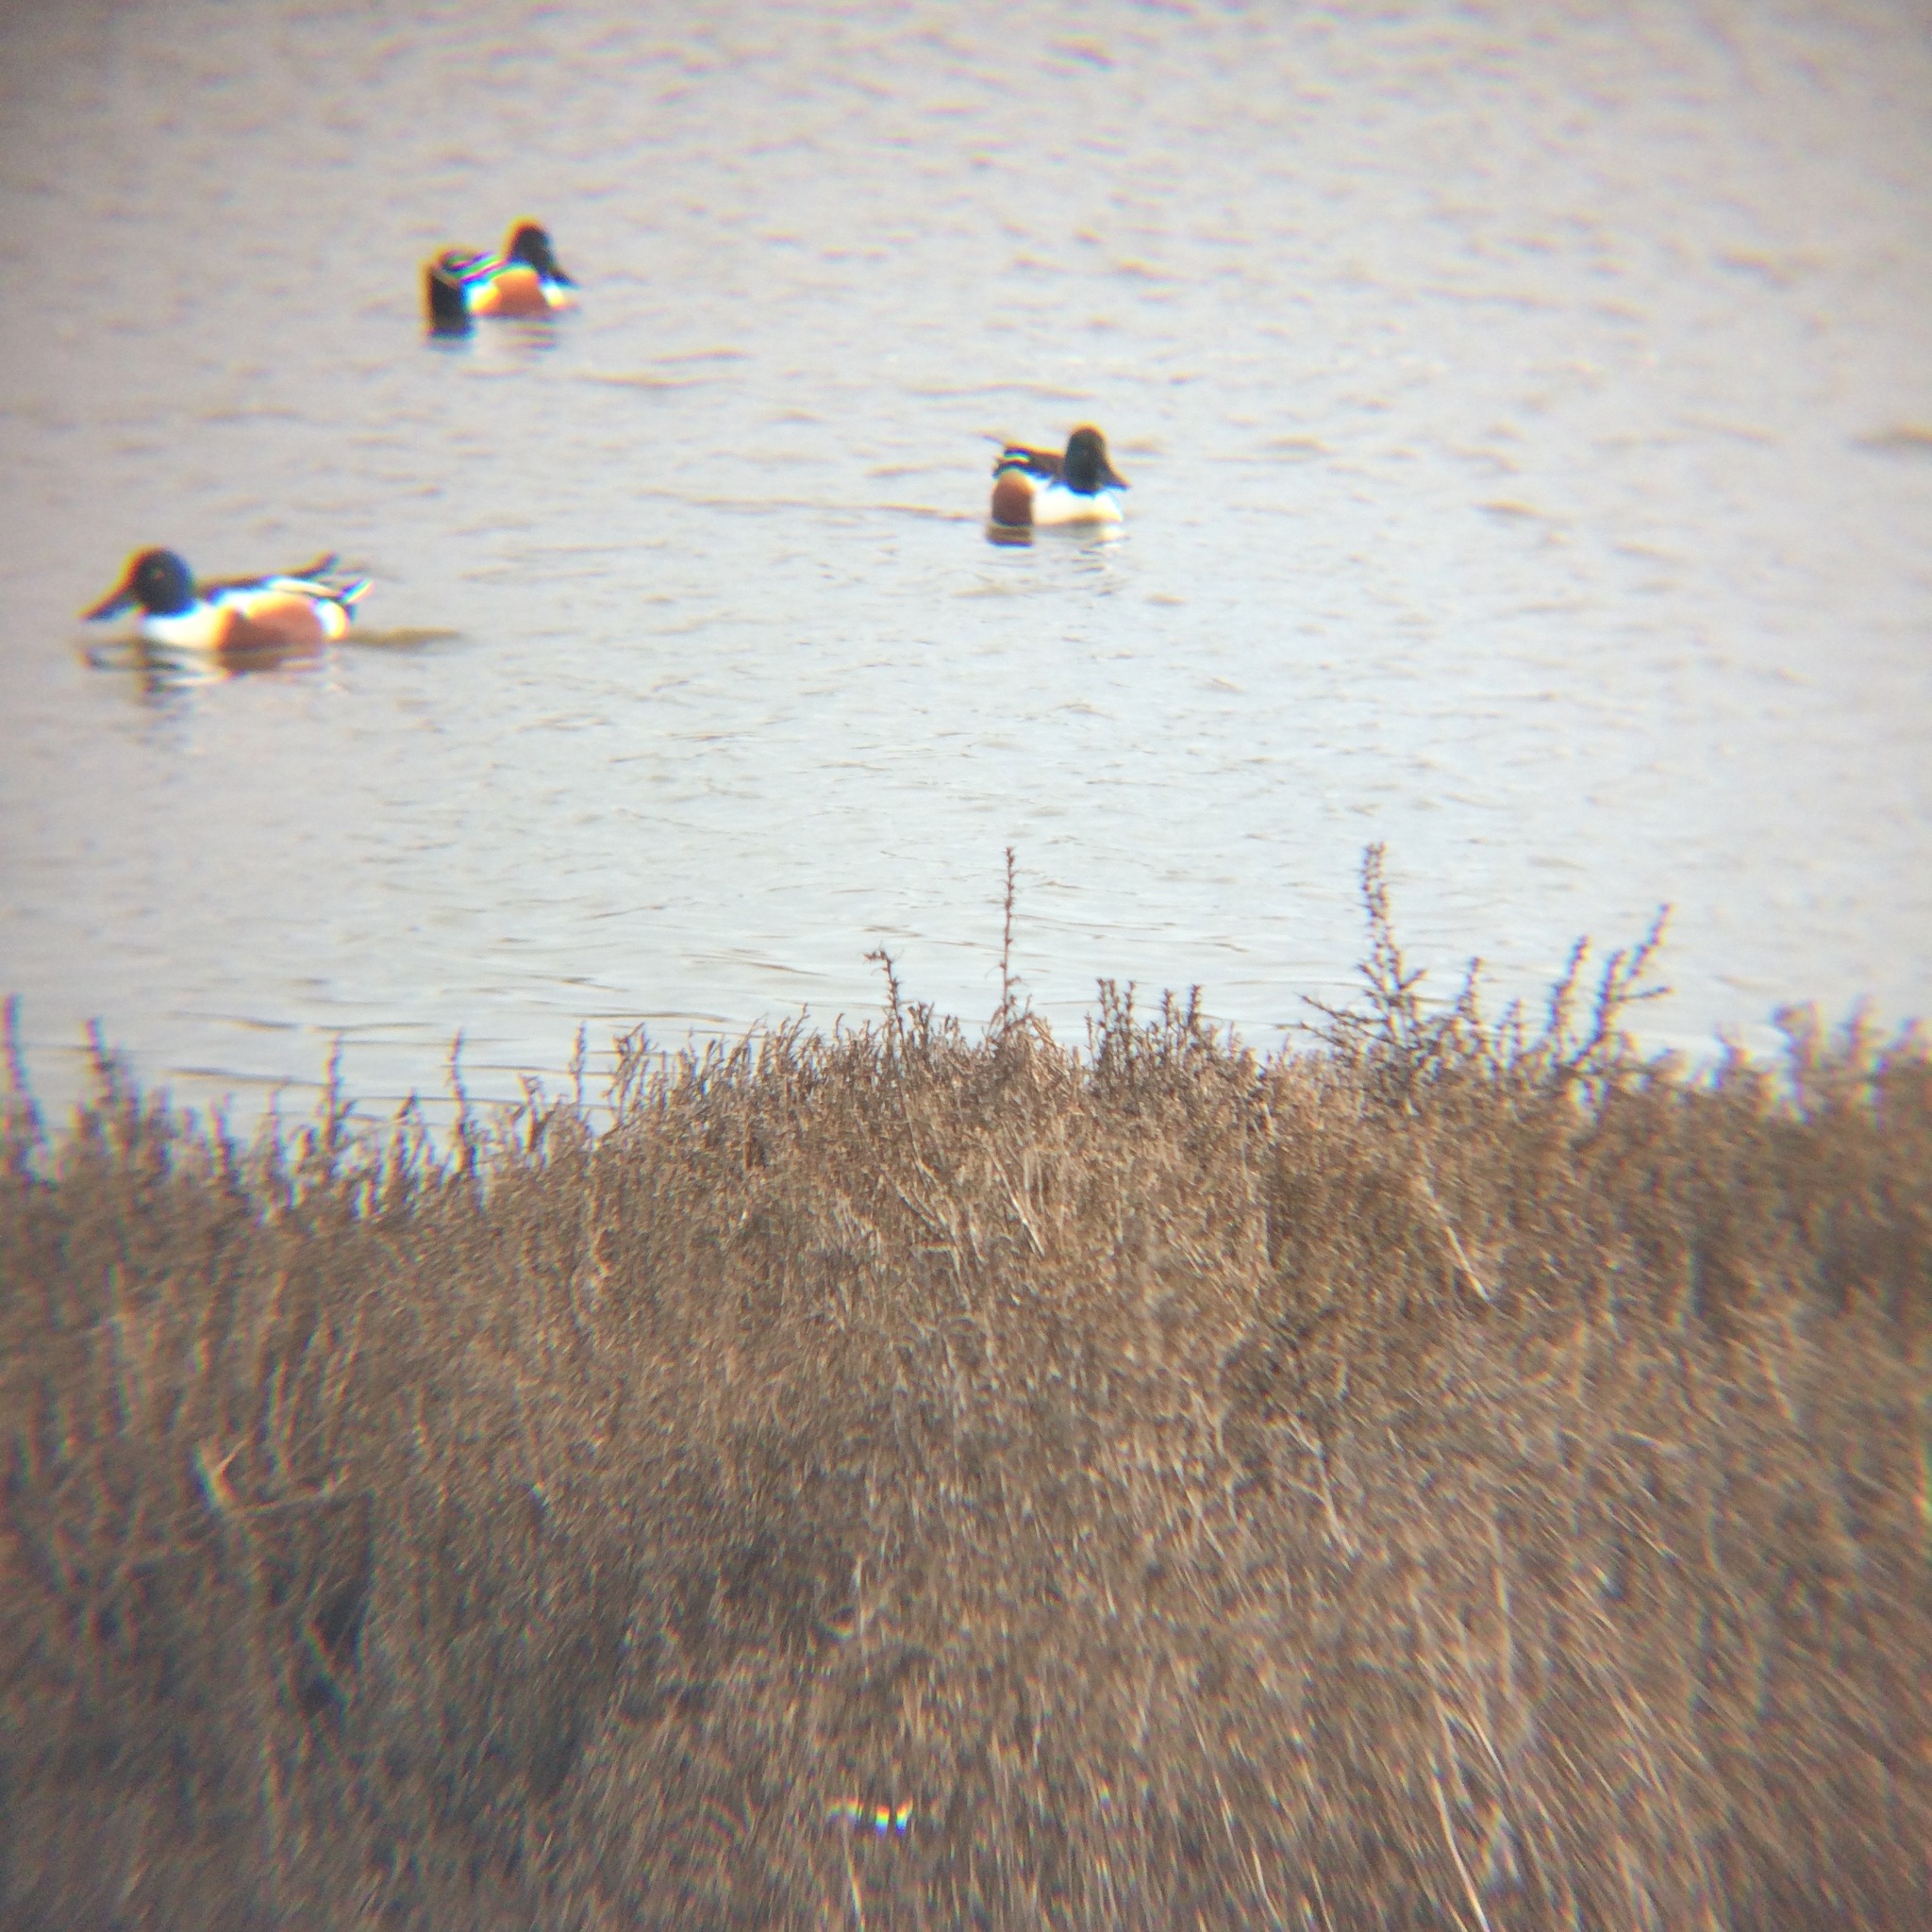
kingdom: Animalia
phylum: Chordata
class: Aves
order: Anseriformes
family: Anatidae
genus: Spatula
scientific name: Spatula clypeata
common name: Northern shoveler
